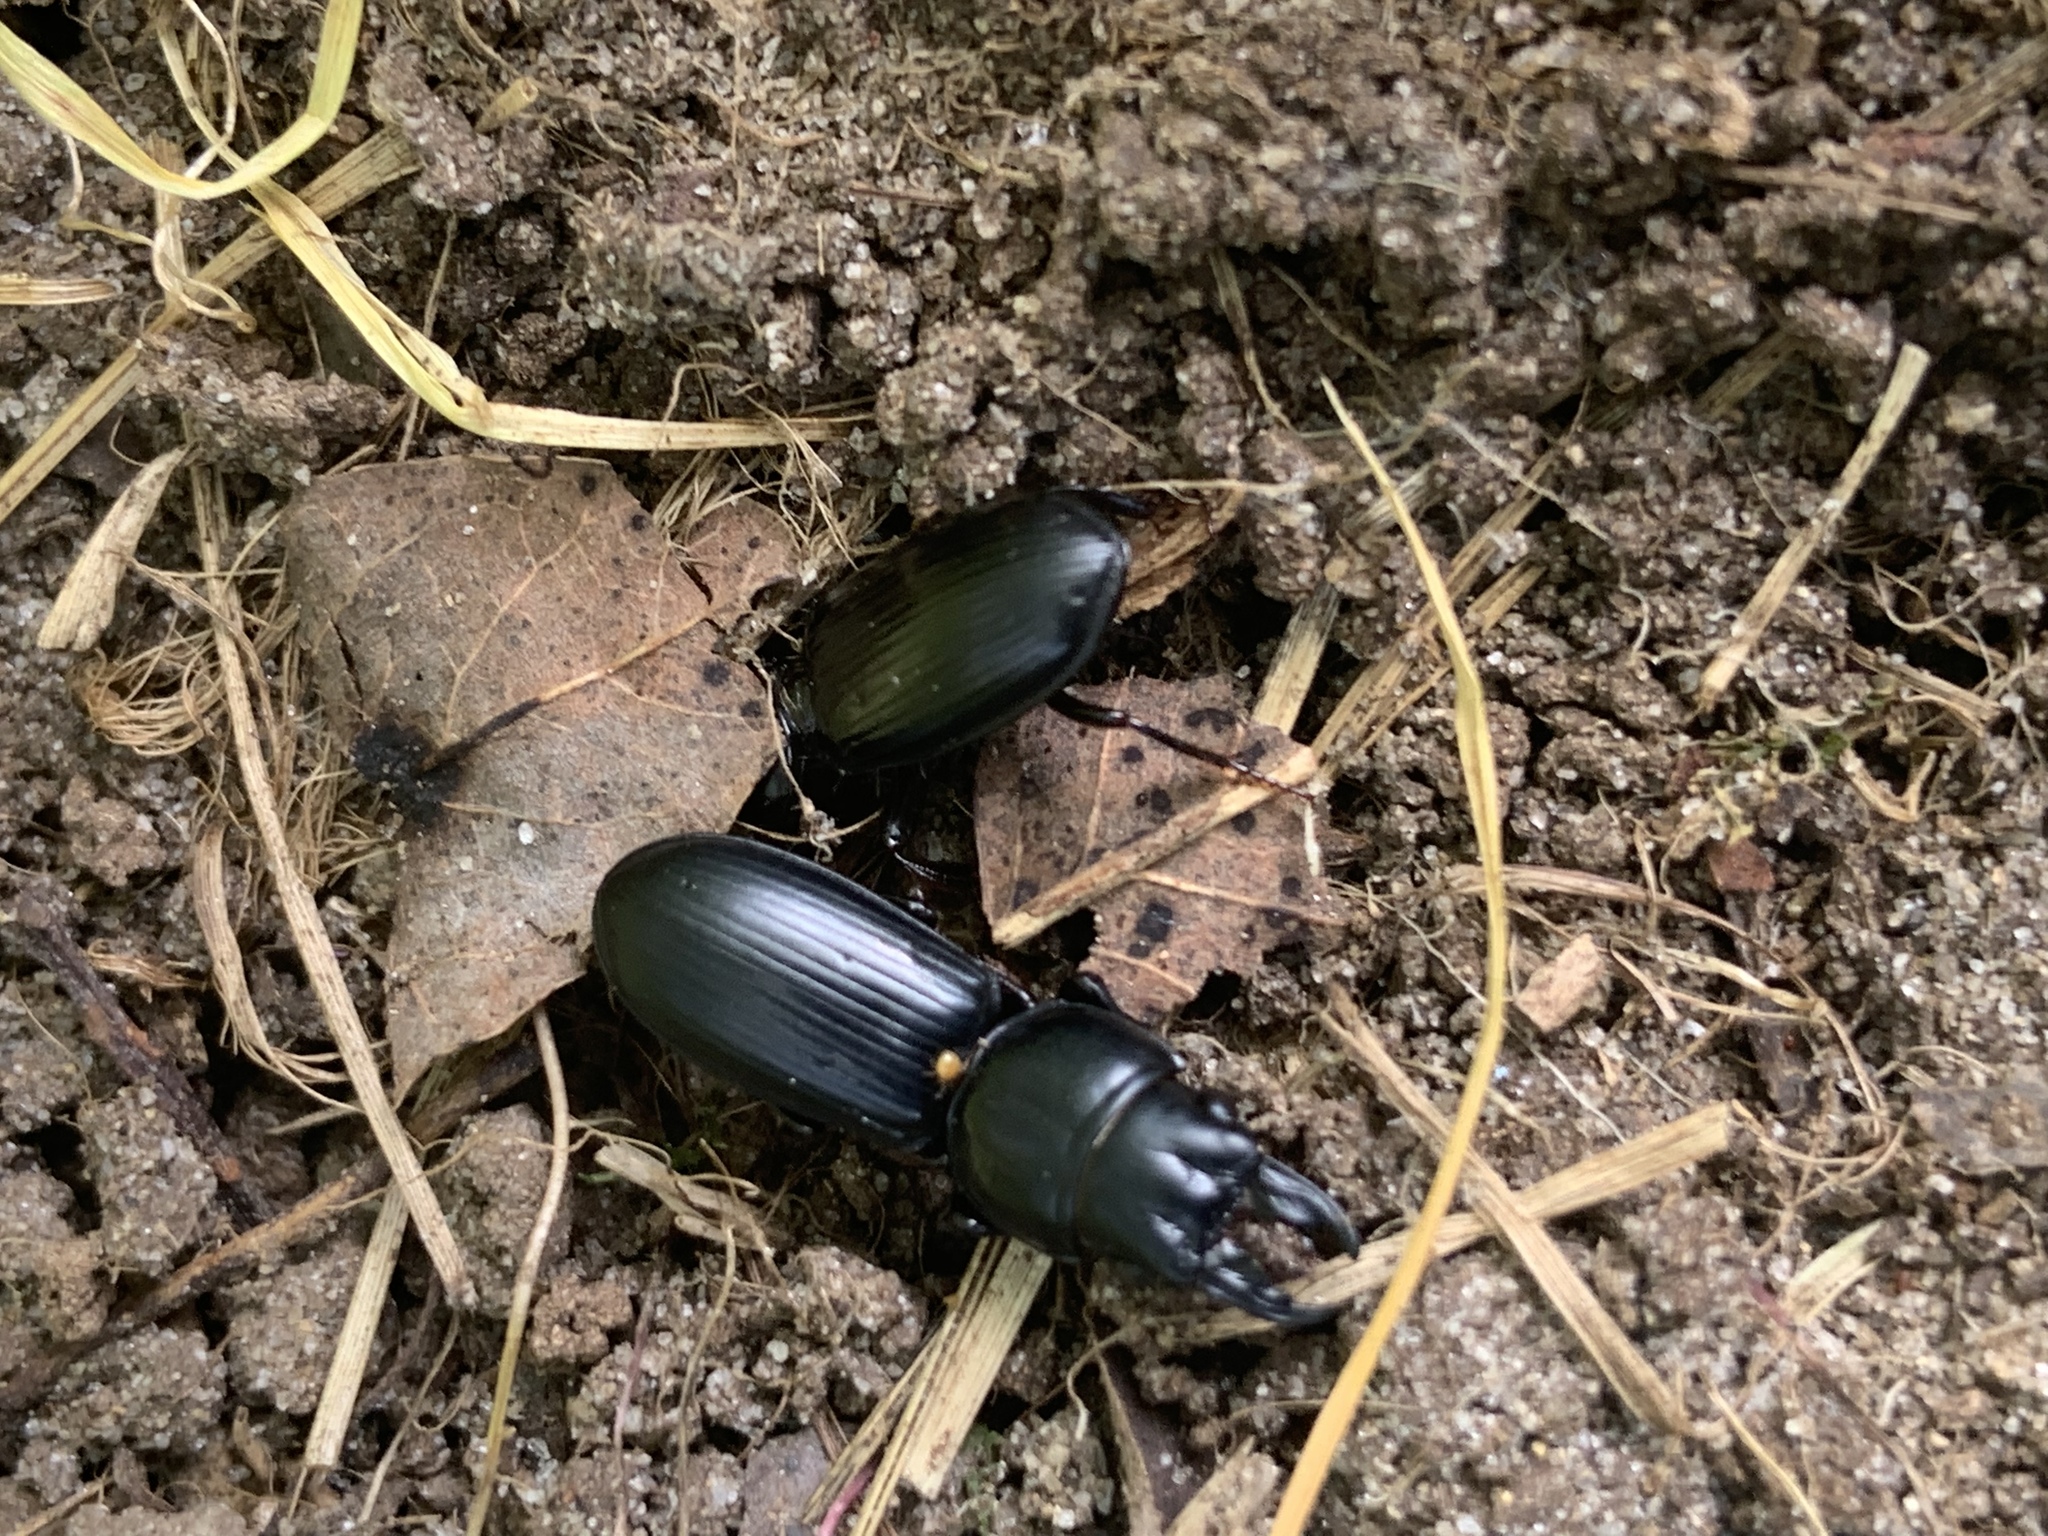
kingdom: Animalia
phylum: Arthropoda
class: Insecta
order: Coleoptera
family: Carabidae
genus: Scarites
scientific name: Scarites subterraneus
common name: Big-headed ground beetle
